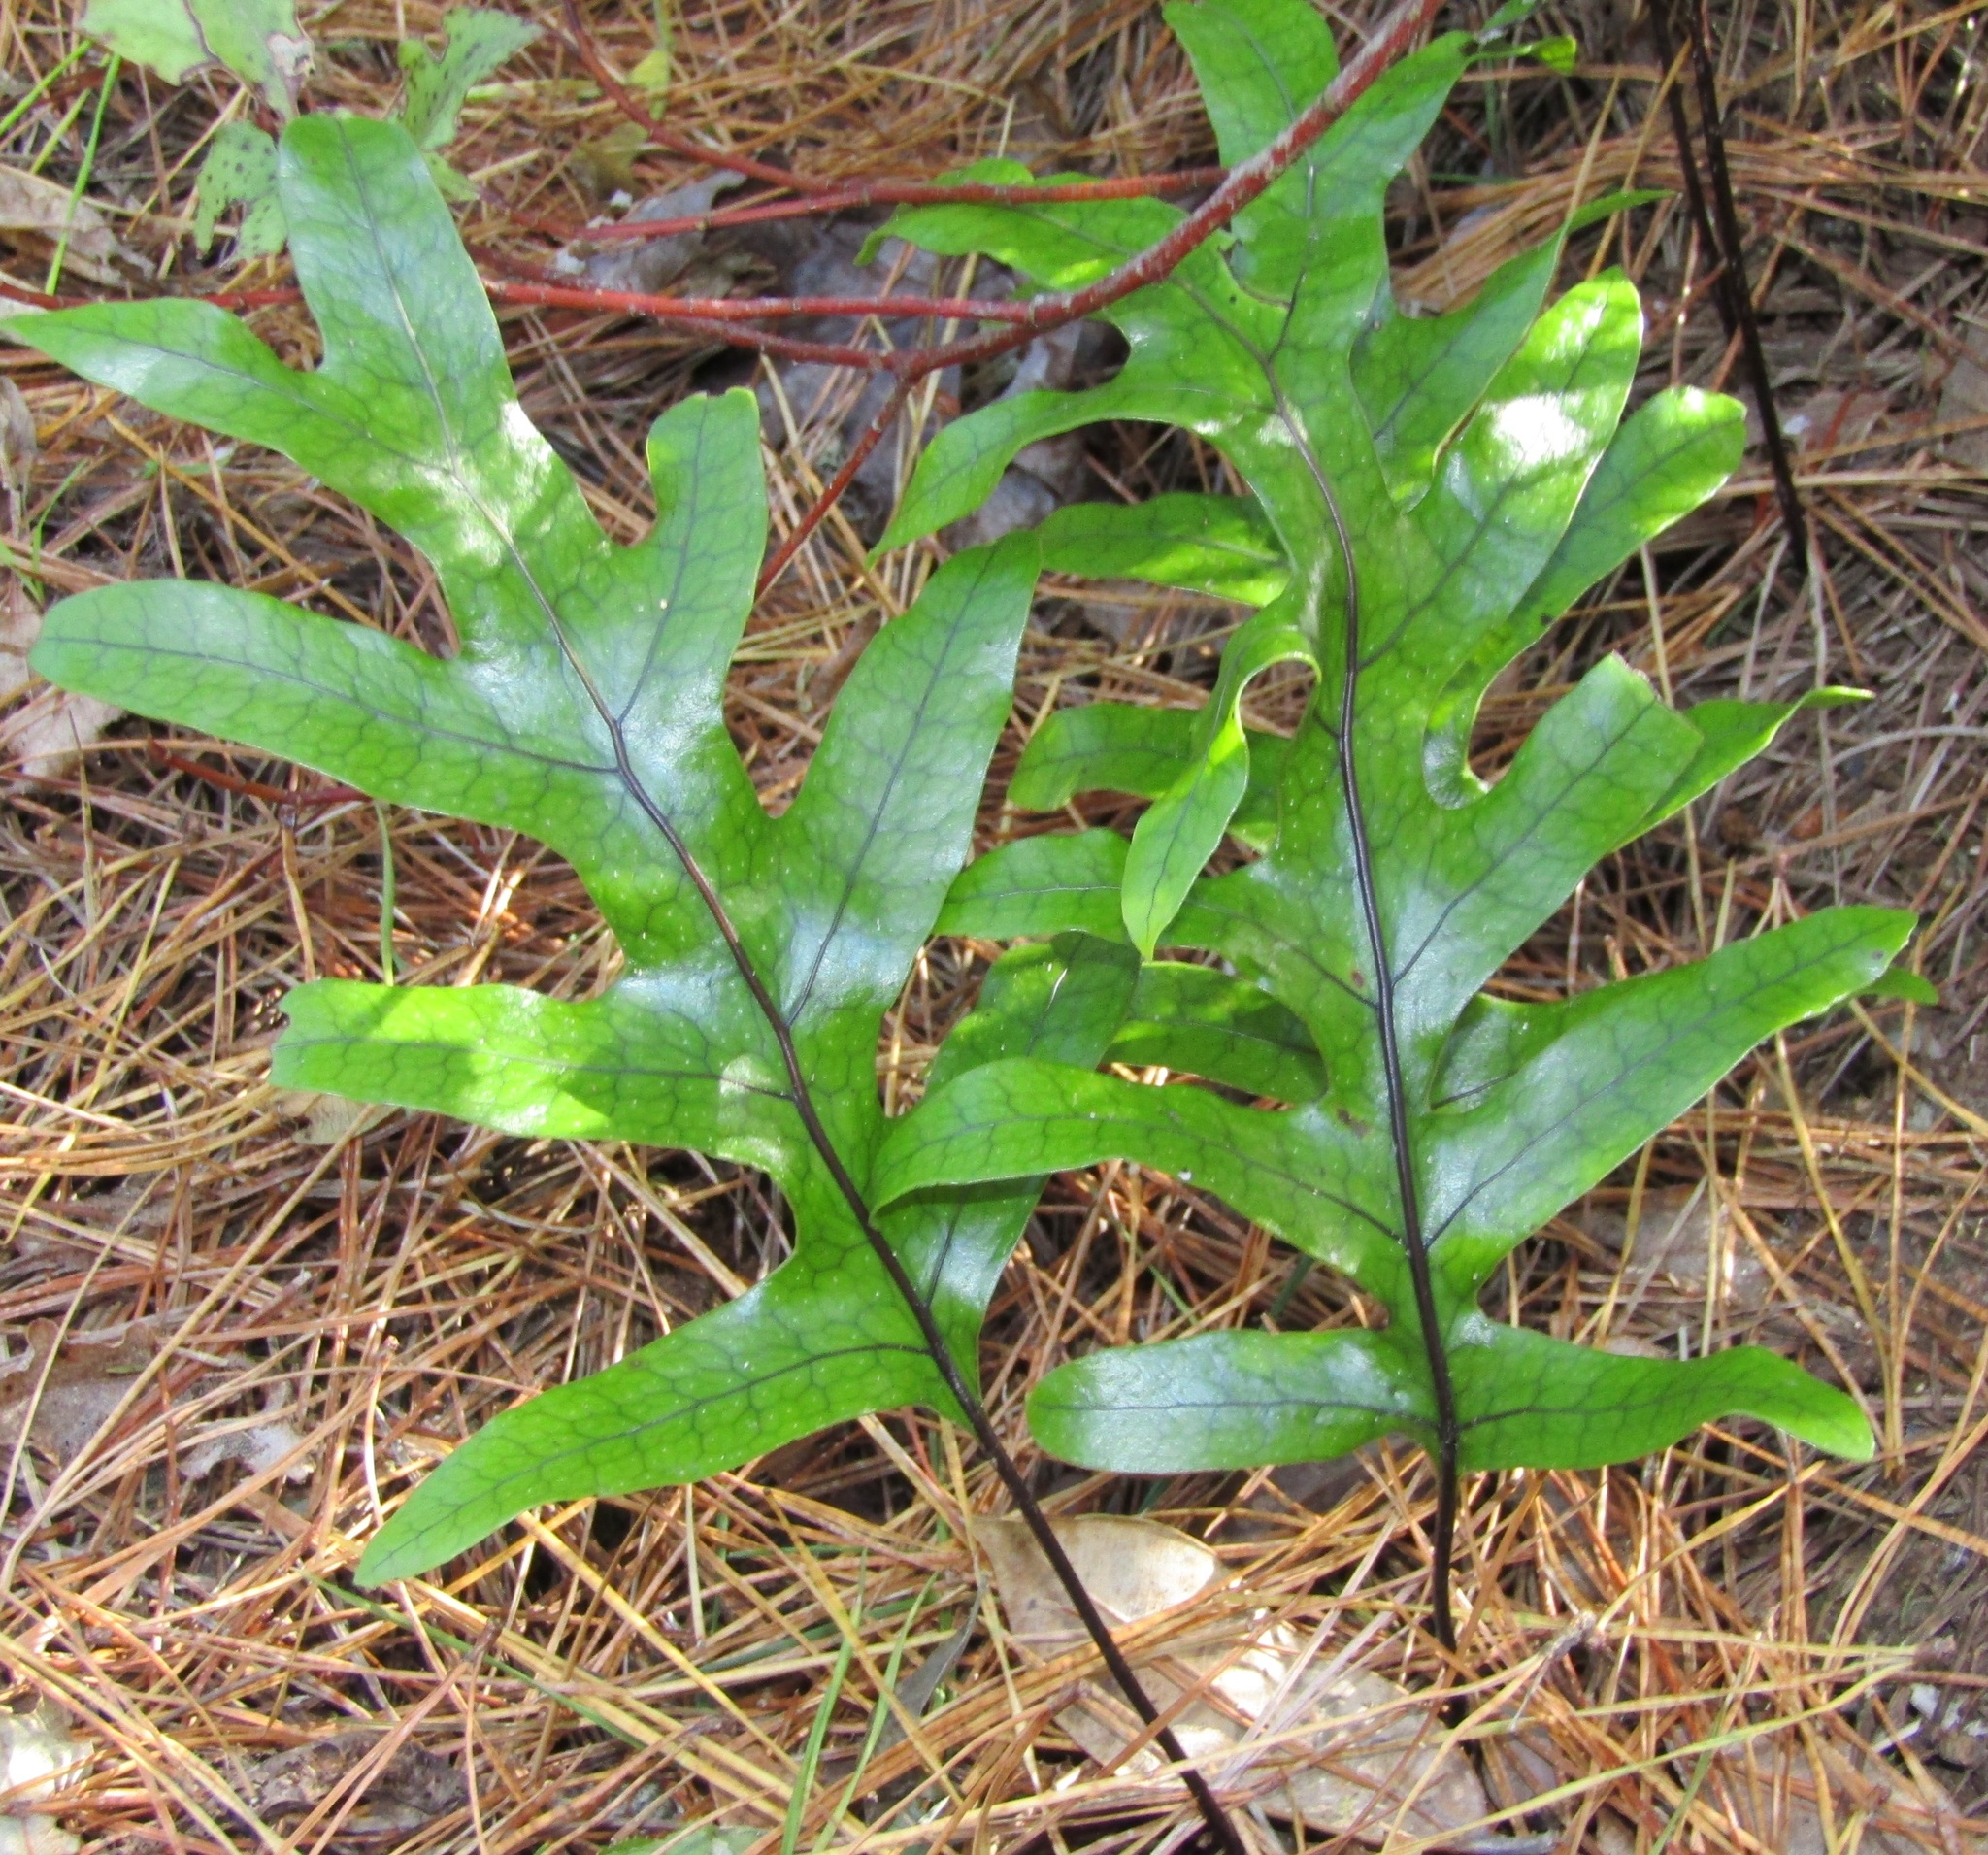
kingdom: Plantae
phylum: Tracheophyta
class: Polypodiopsida
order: Polypodiales
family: Polypodiaceae
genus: Lecanopteris
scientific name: Lecanopteris pustulata
